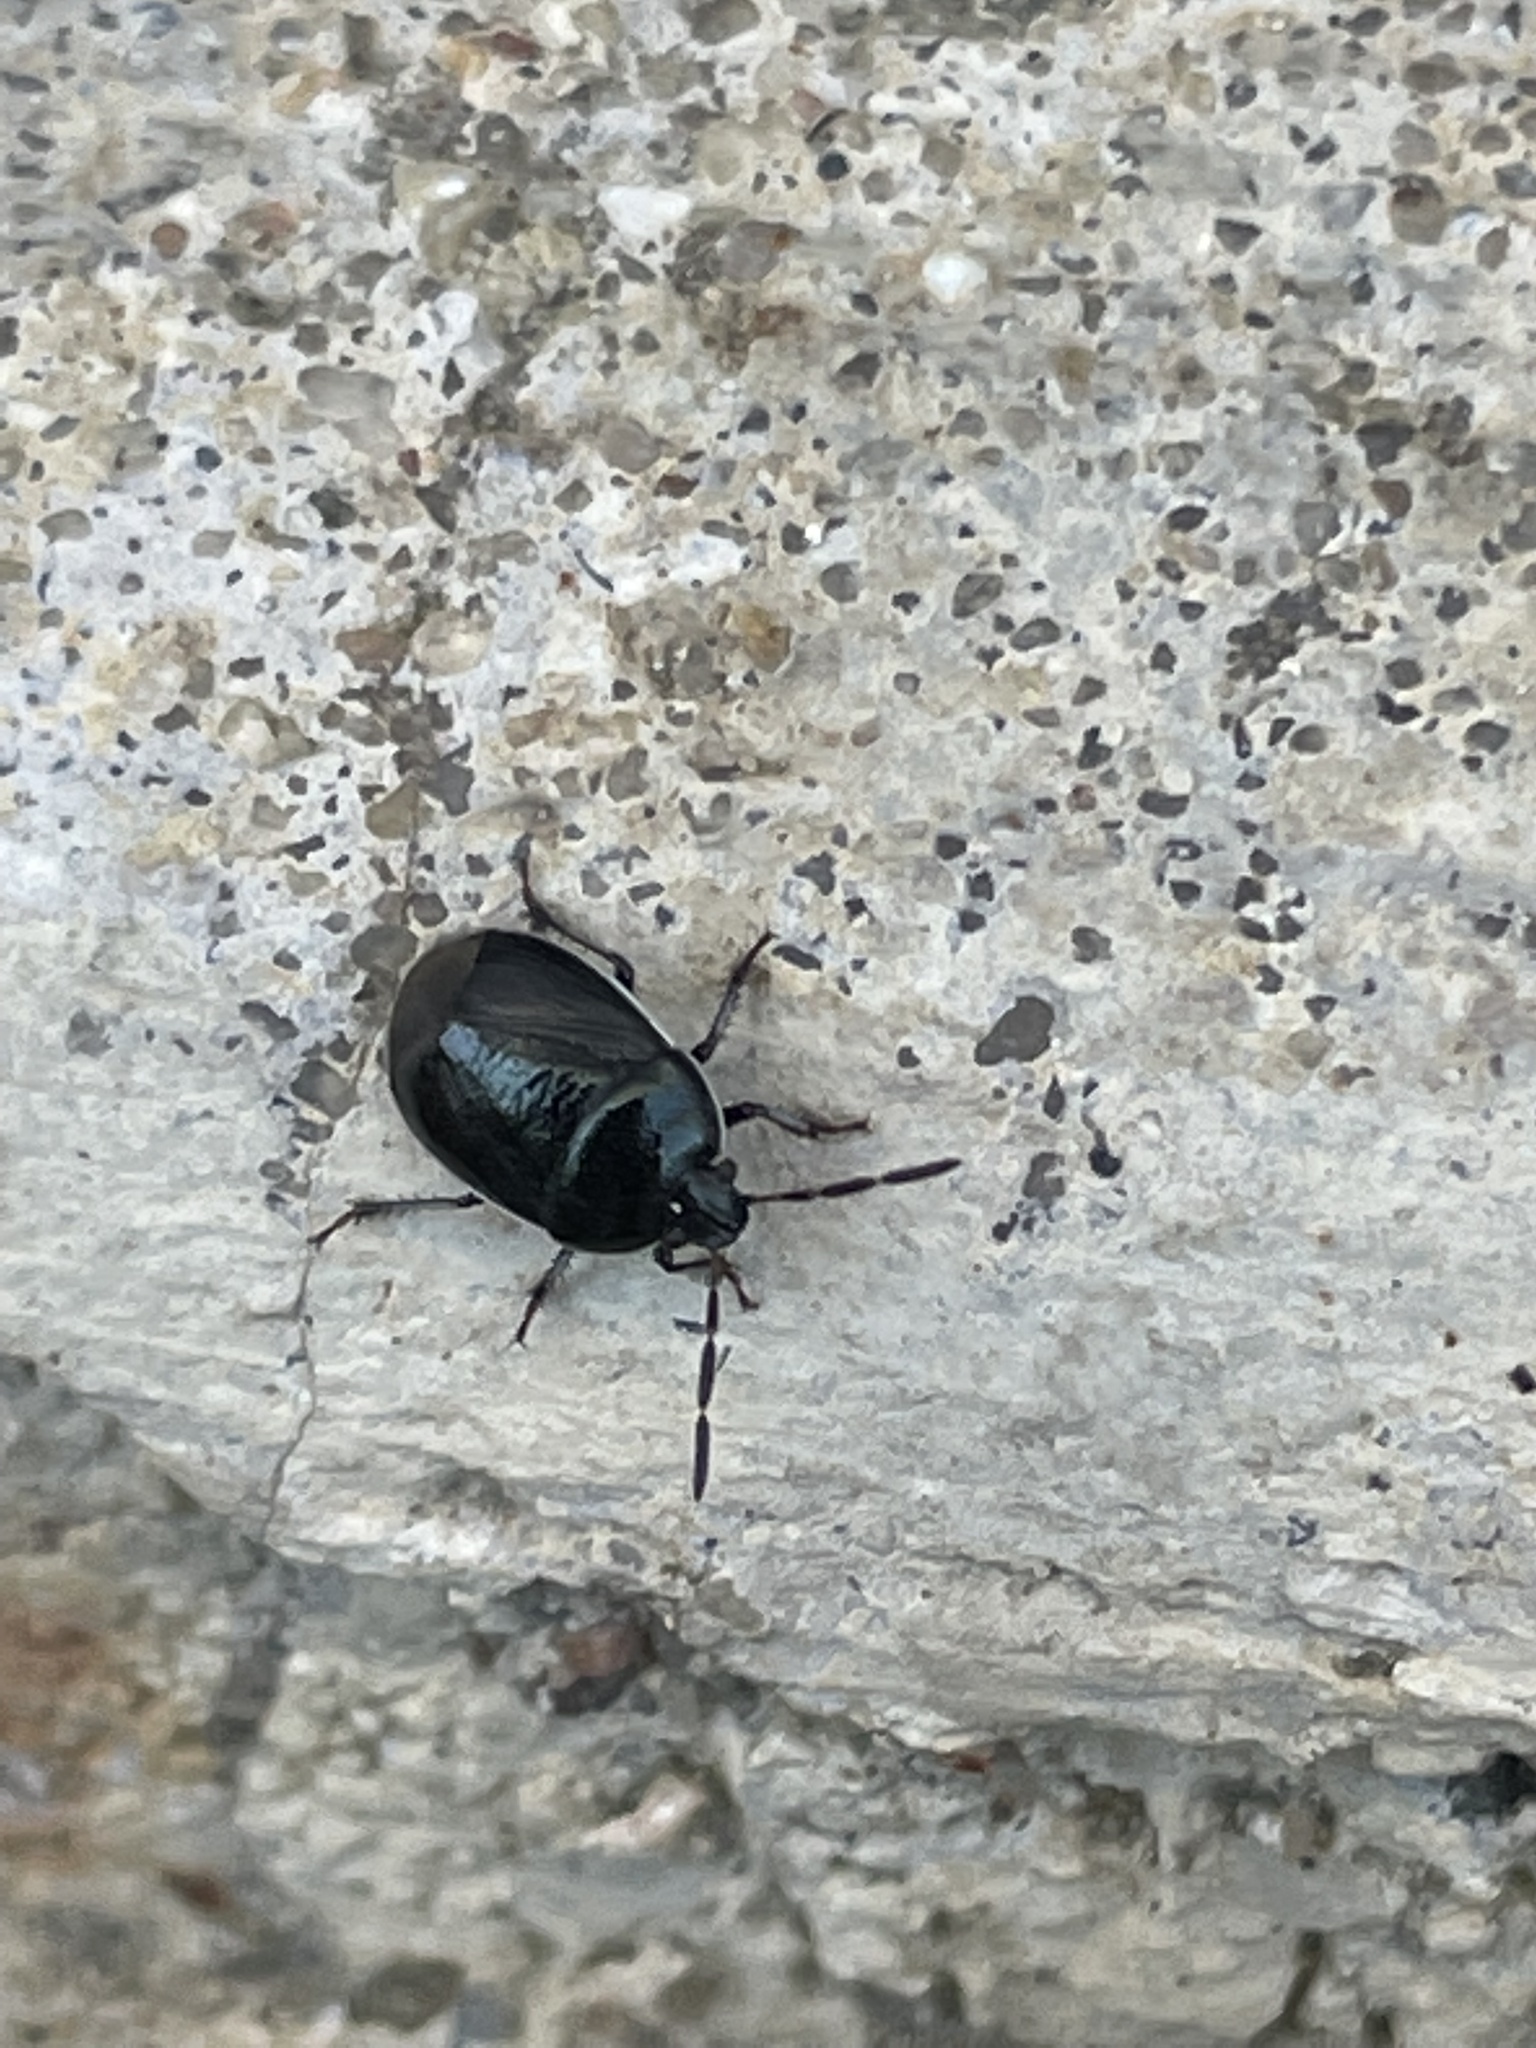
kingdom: Animalia
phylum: Arthropoda
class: Insecta
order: Hemiptera
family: Cydnidae
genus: Sehirus
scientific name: Sehirus cinctus
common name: White-margined burrower bug
